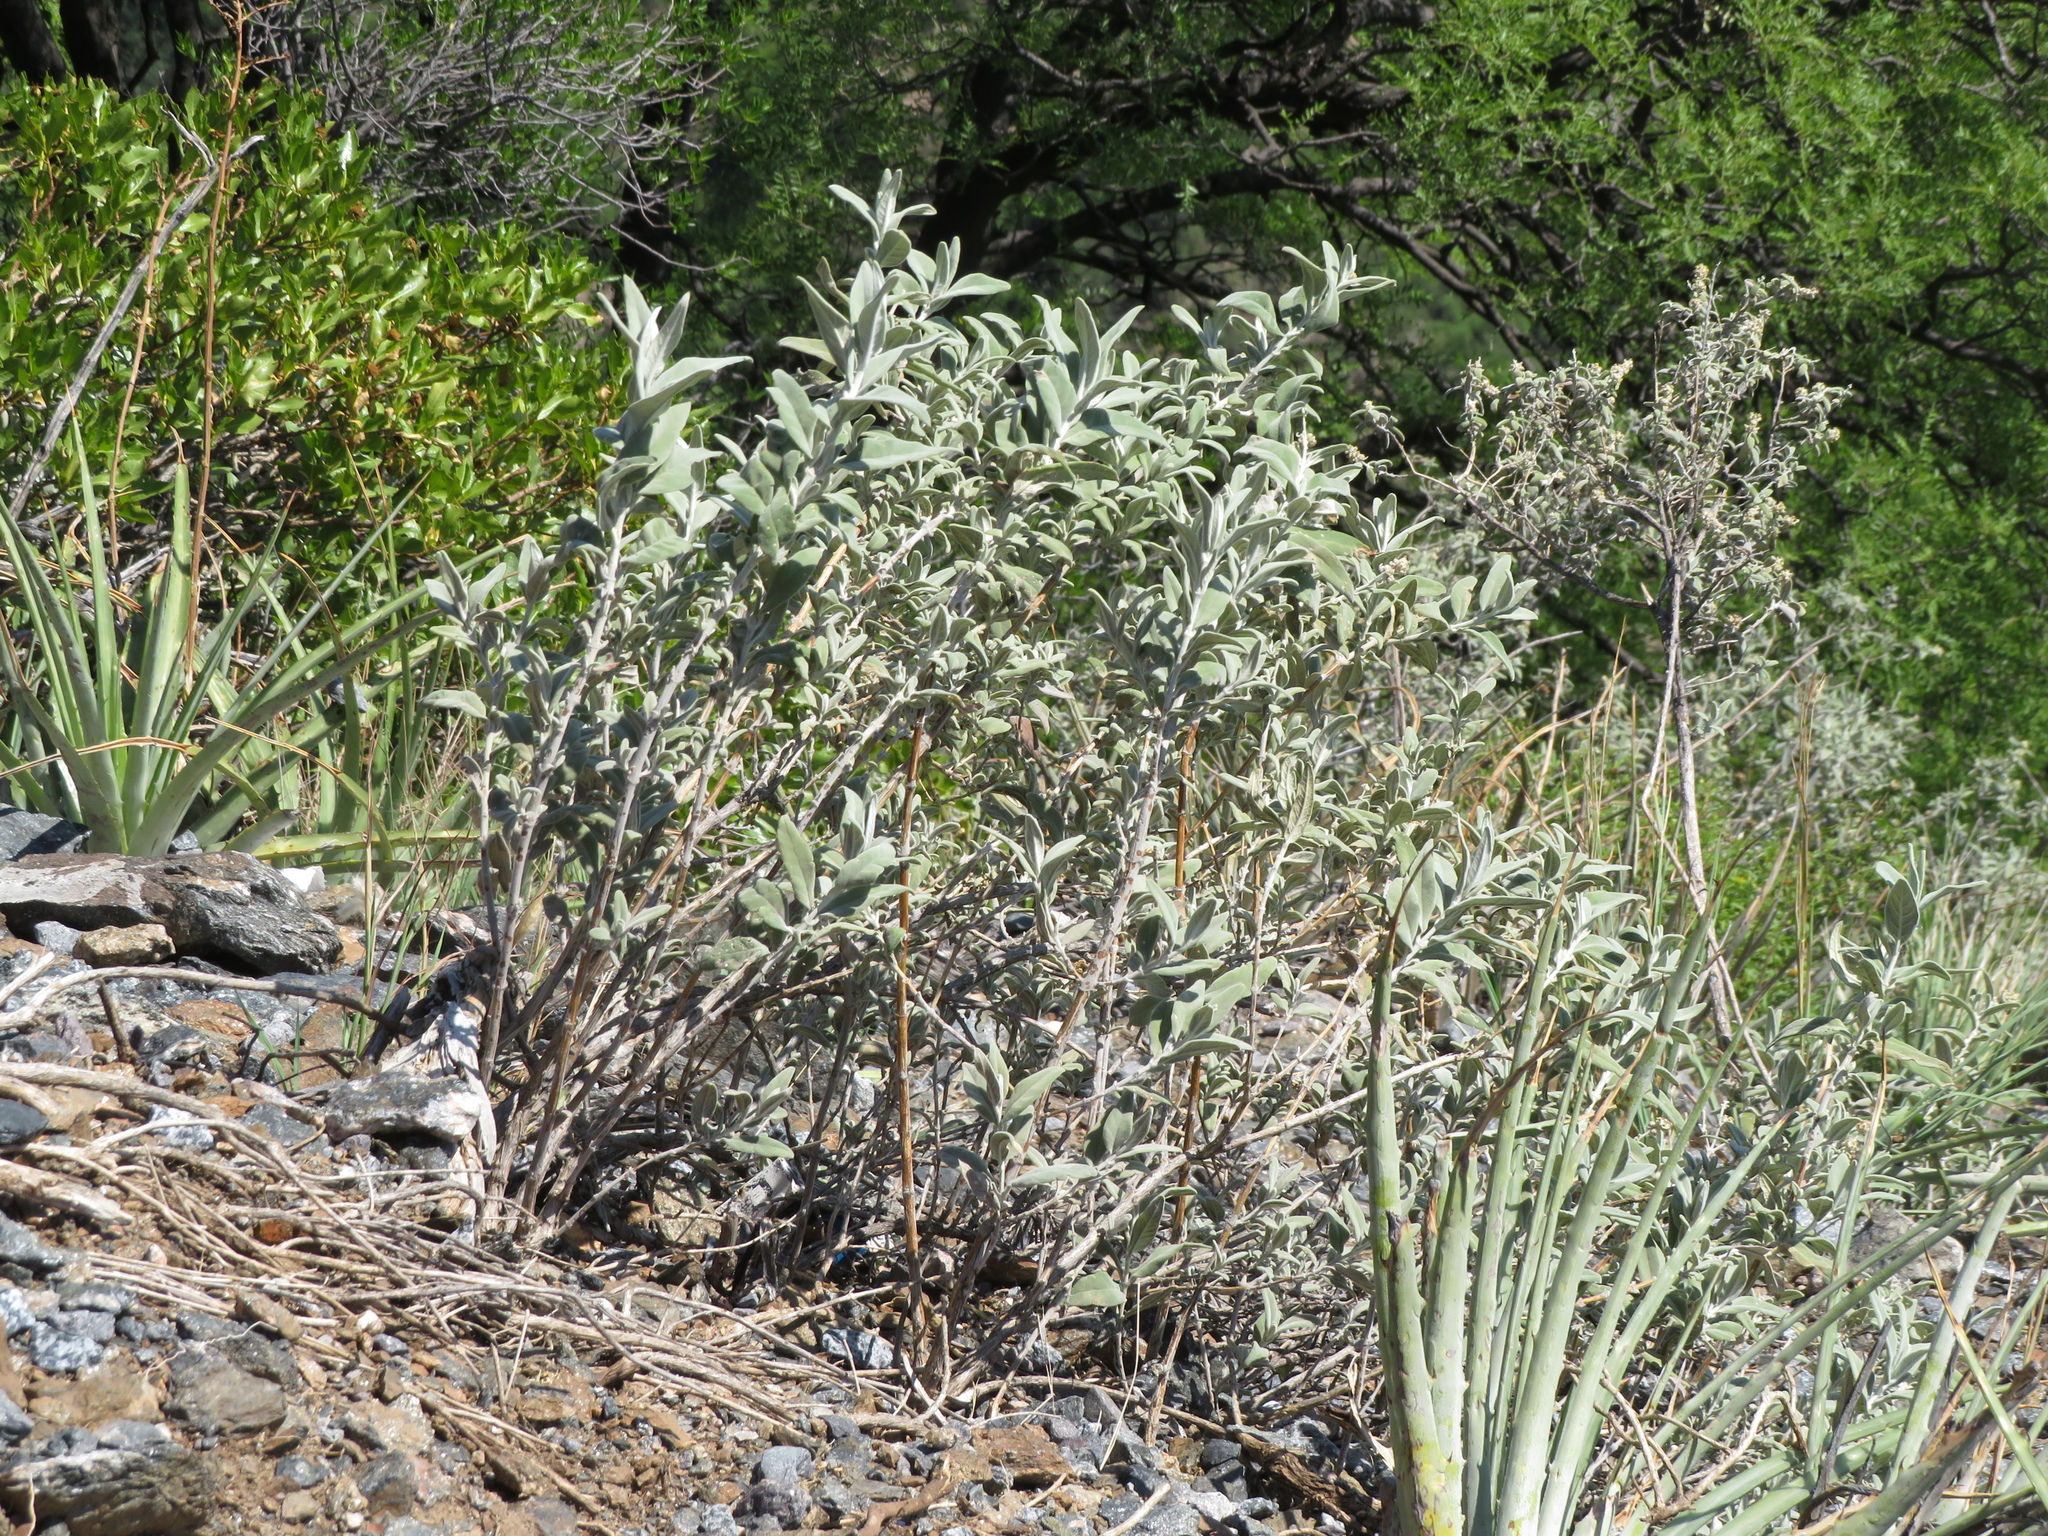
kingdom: Plantae
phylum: Tracheophyta
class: Magnoliopsida
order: Lamiales
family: Scrophulariaceae
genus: Buddleja
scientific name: Buddleja cordobensis
